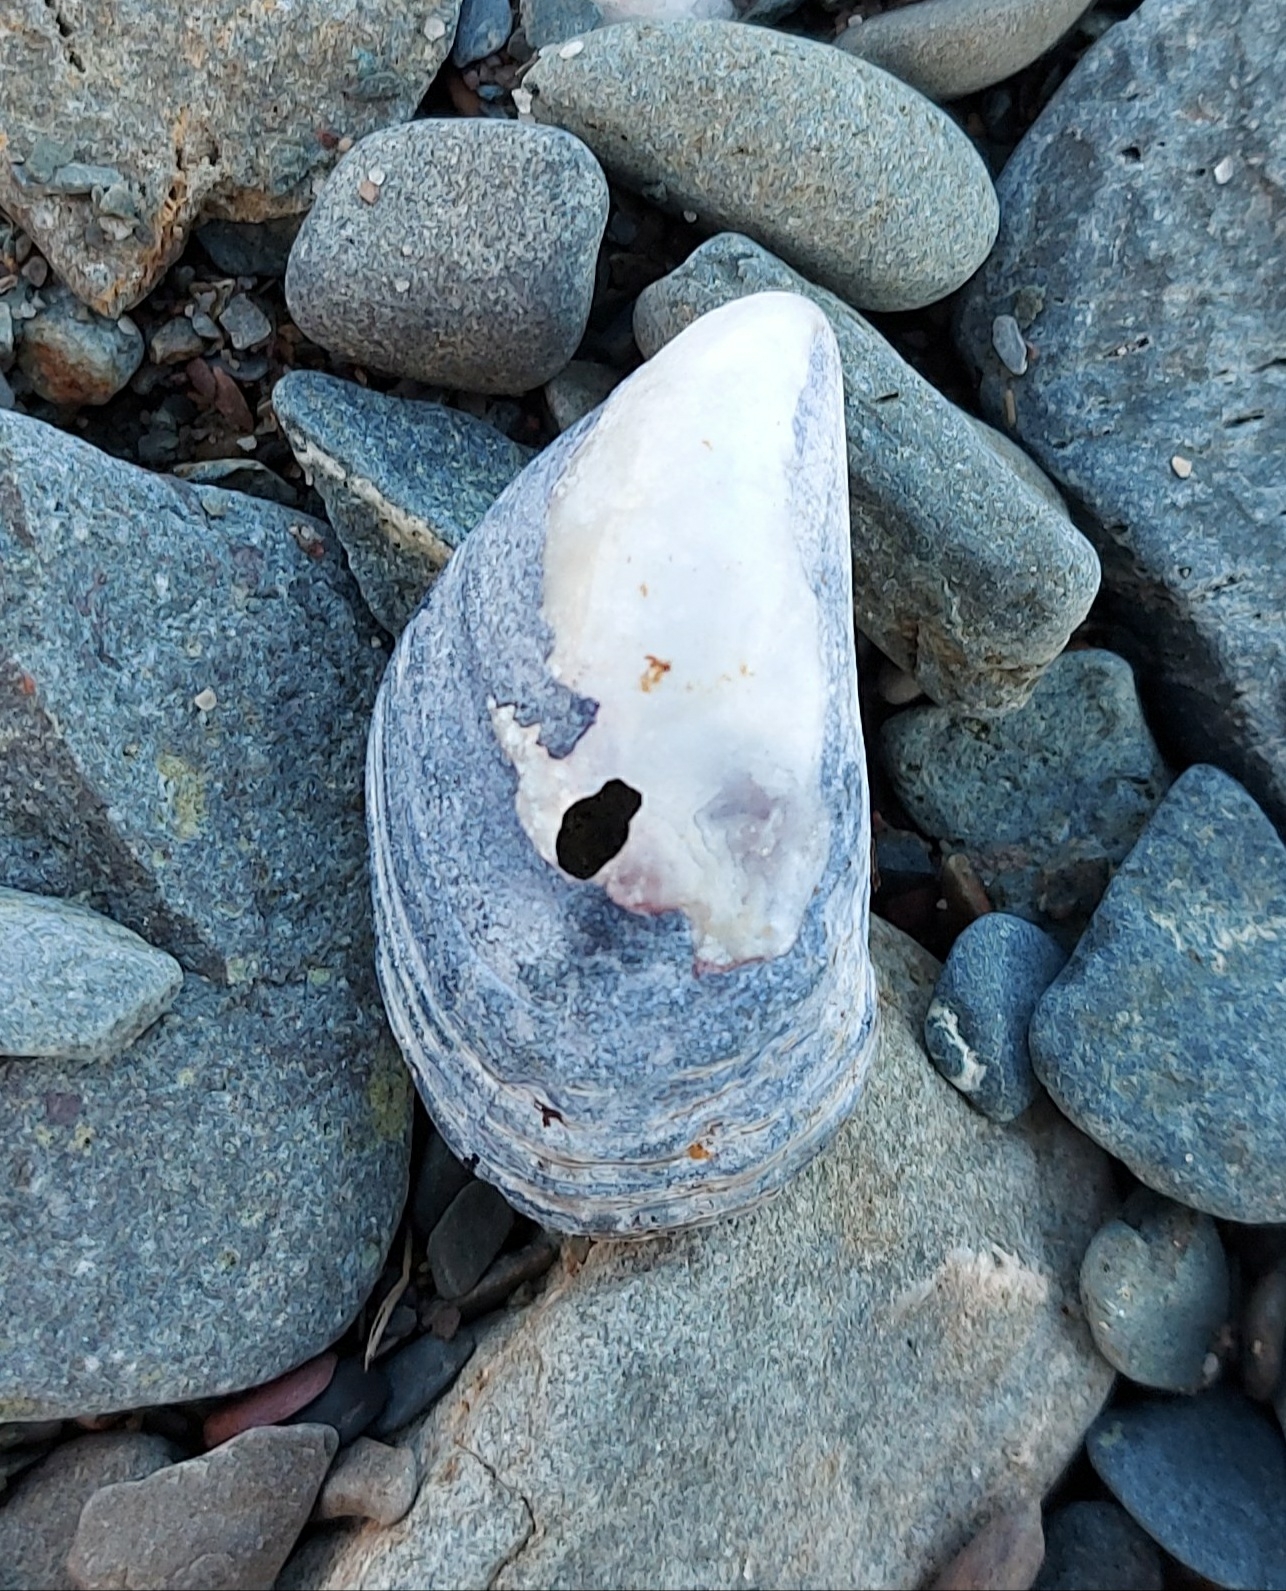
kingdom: Animalia
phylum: Mollusca
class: Bivalvia
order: Mytilida
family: Mytilidae
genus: Mytilus
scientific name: Mytilus edulis
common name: Blue mussel
